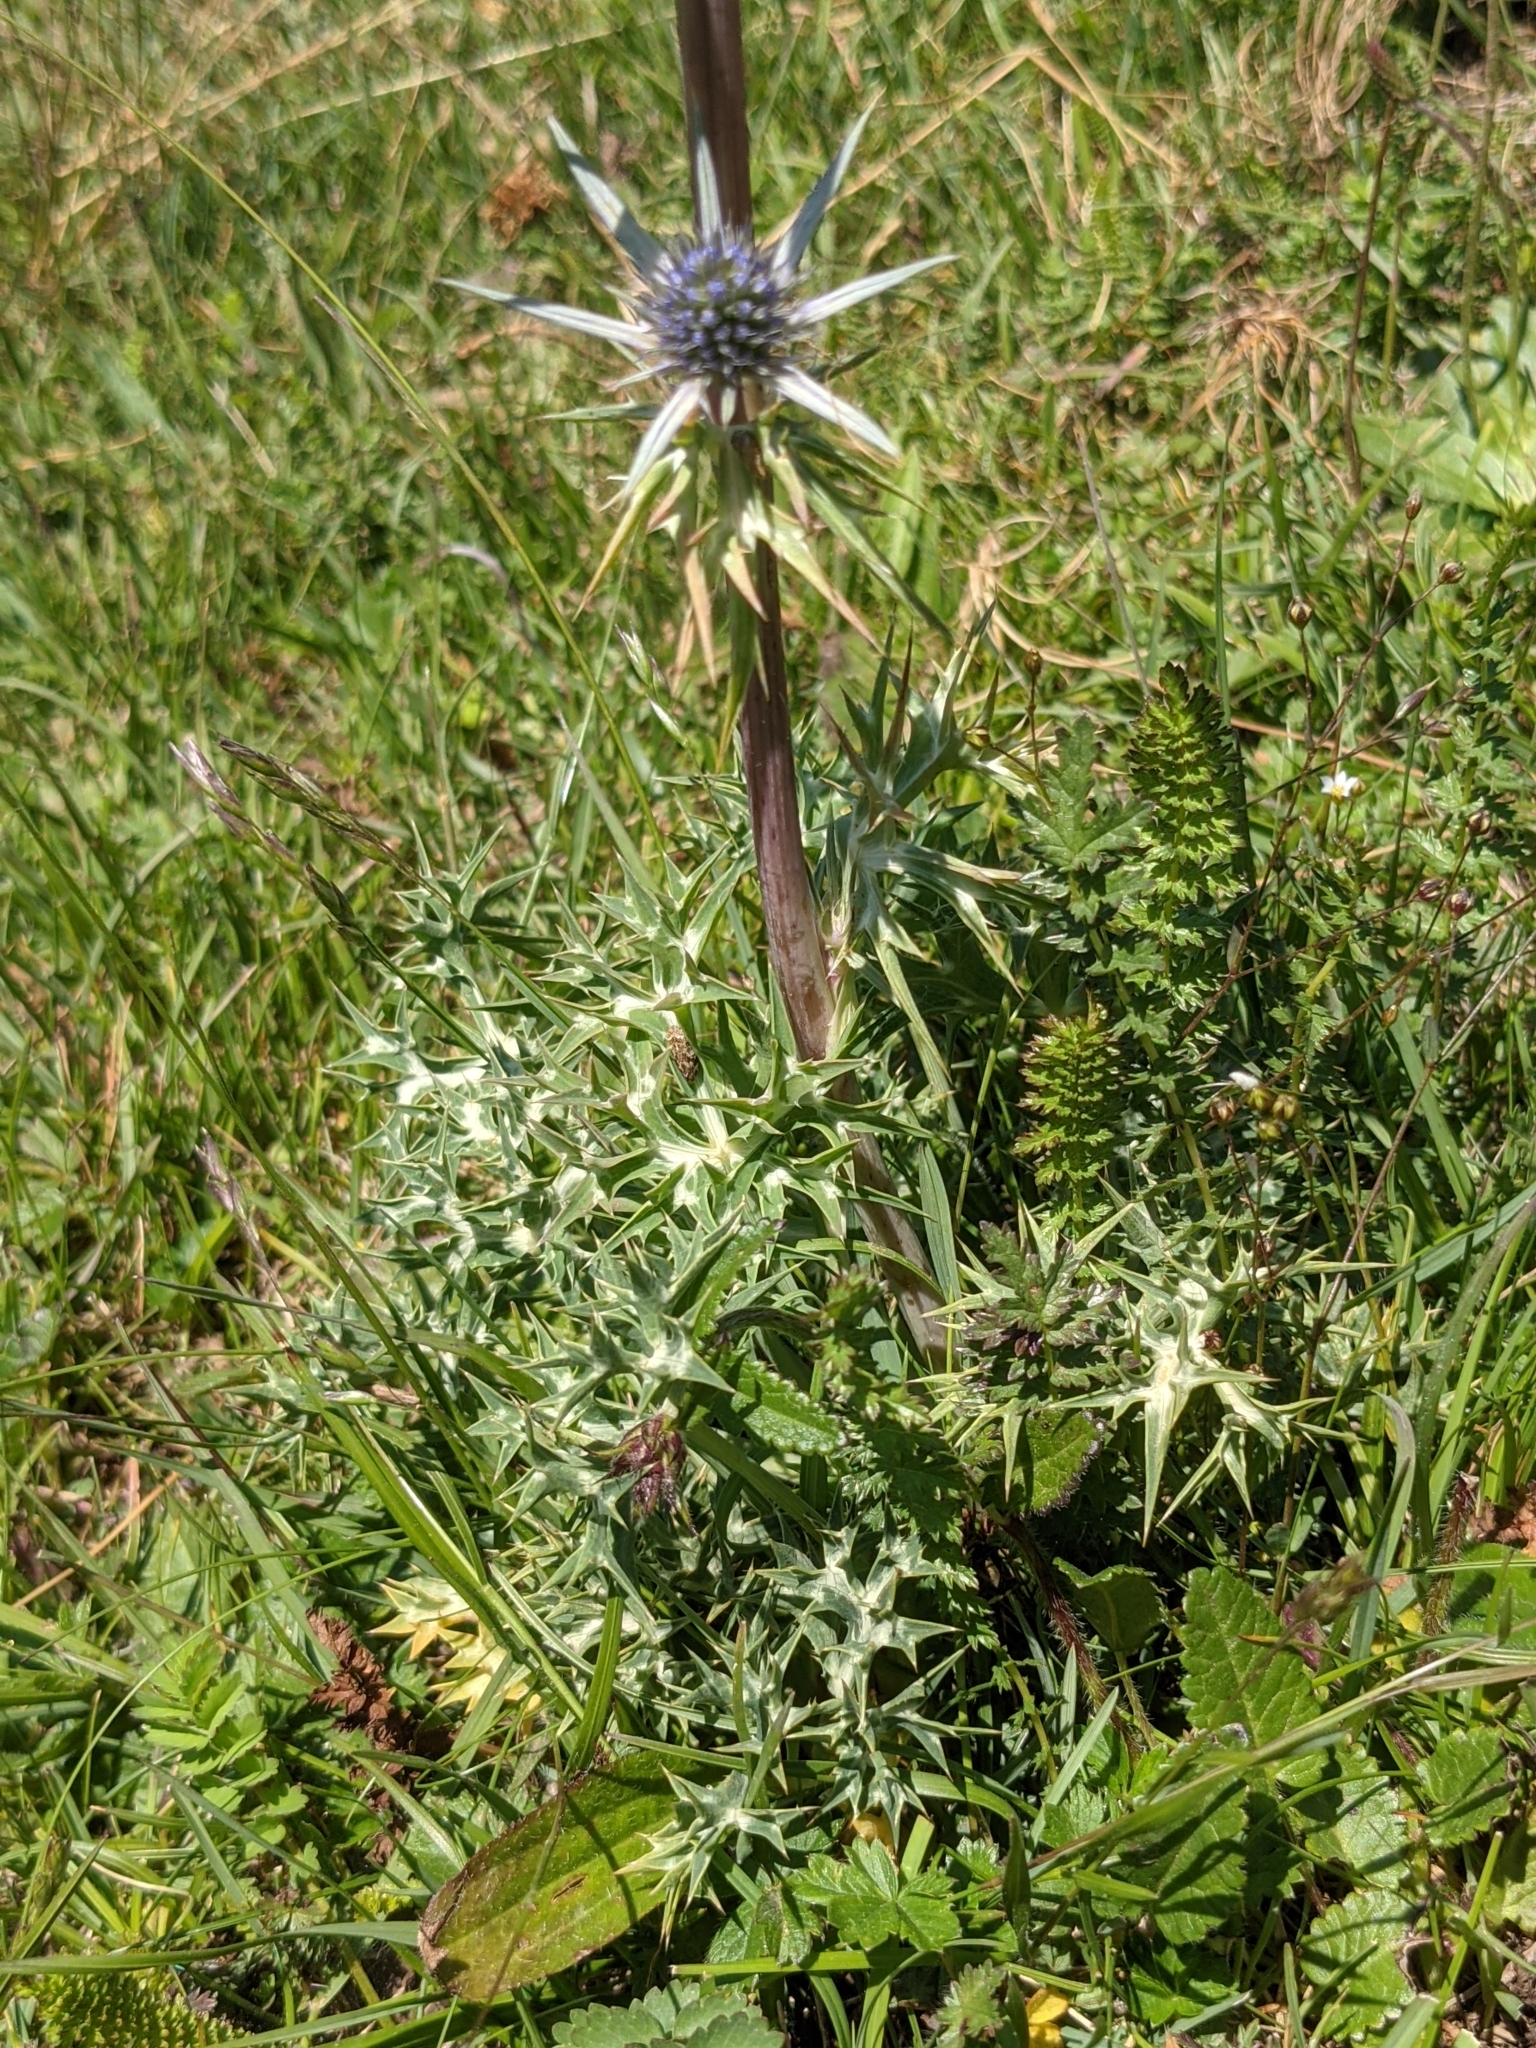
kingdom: Plantae
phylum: Tracheophyta
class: Magnoliopsida
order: Apiales
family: Apiaceae
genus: Eryngium
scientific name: Eryngium bourgatii
